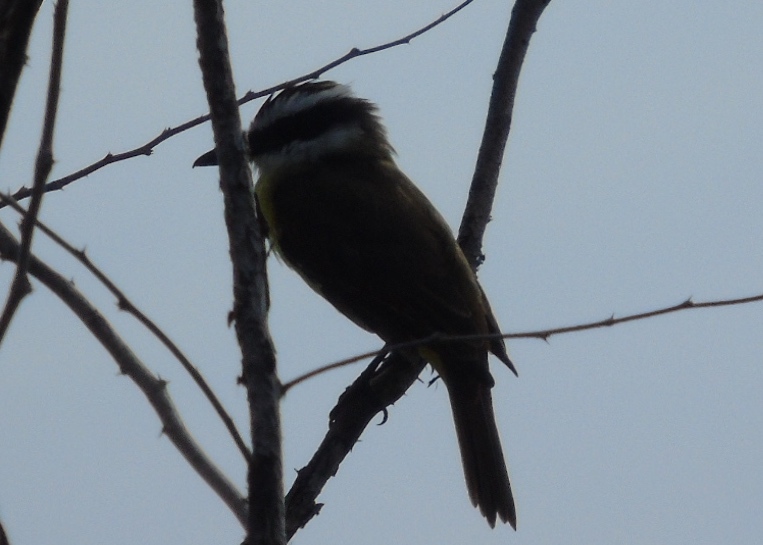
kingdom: Animalia
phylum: Chordata
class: Aves
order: Passeriformes
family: Tyrannidae
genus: Pitangus
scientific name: Pitangus sulphuratus
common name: Great kiskadee
